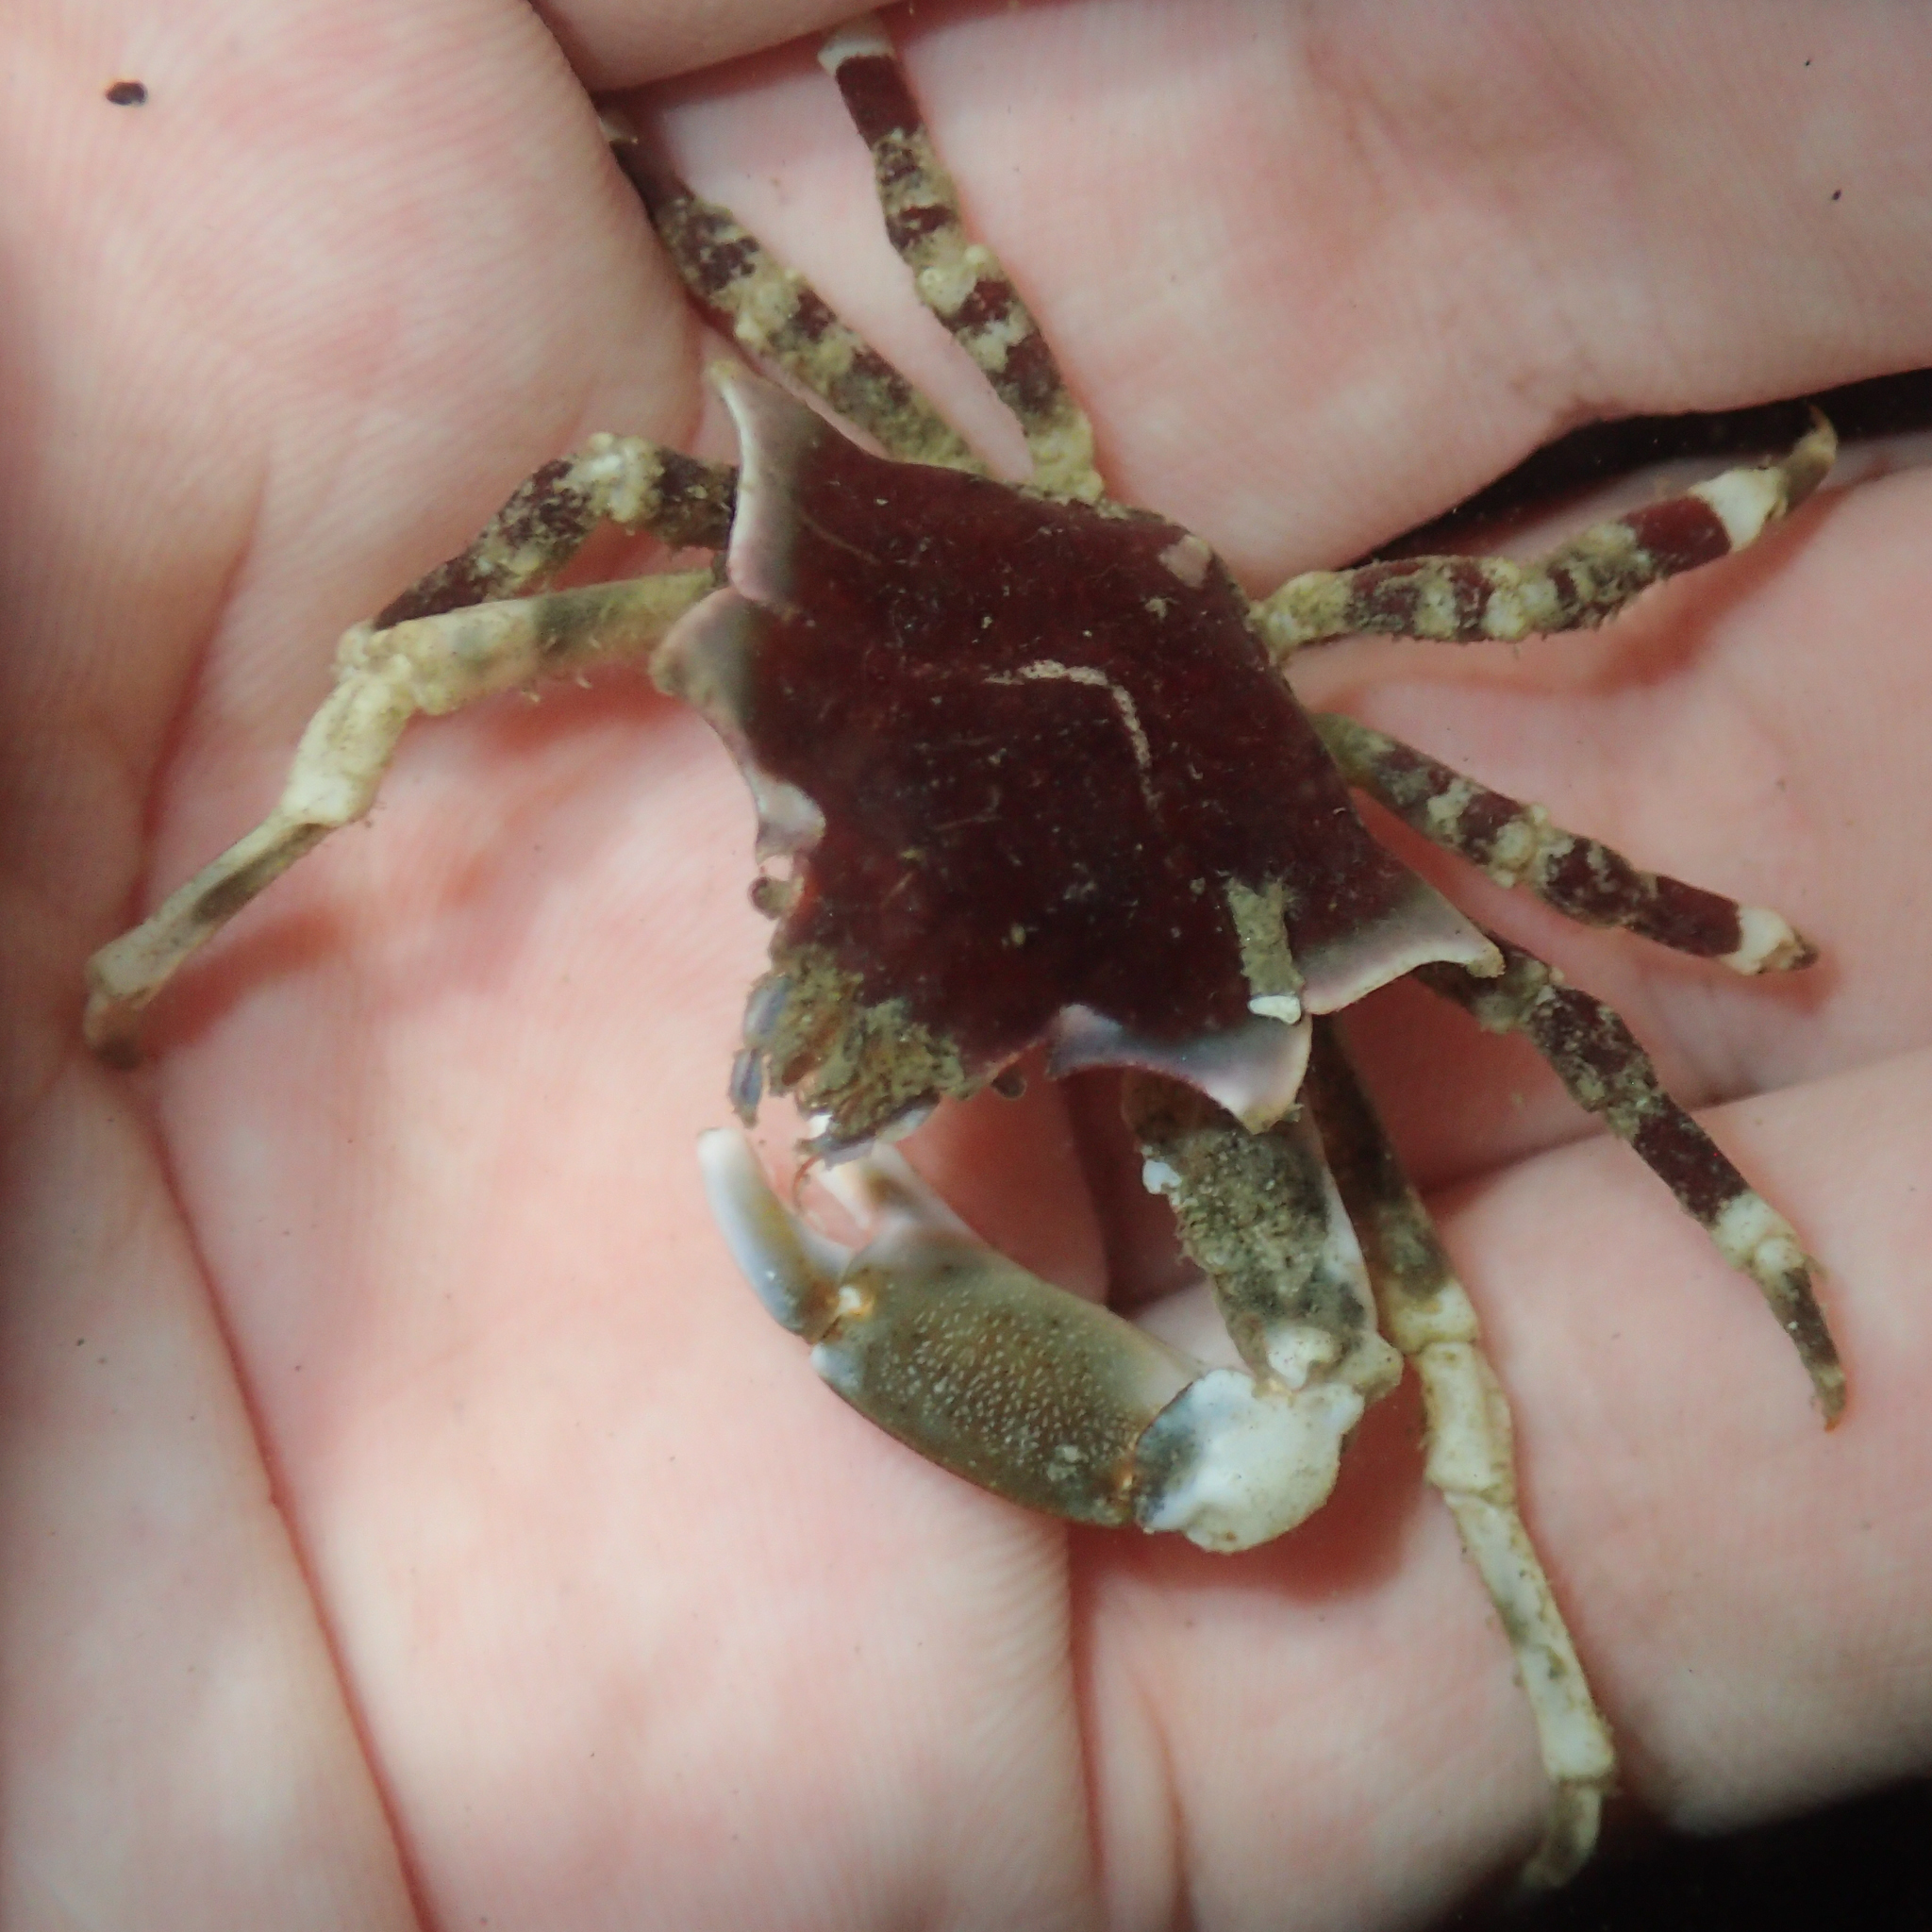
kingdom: Animalia
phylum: Arthropoda
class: Malacostraca
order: Decapoda
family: Epialtidae
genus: Pugettia
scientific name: Pugettia foliata
